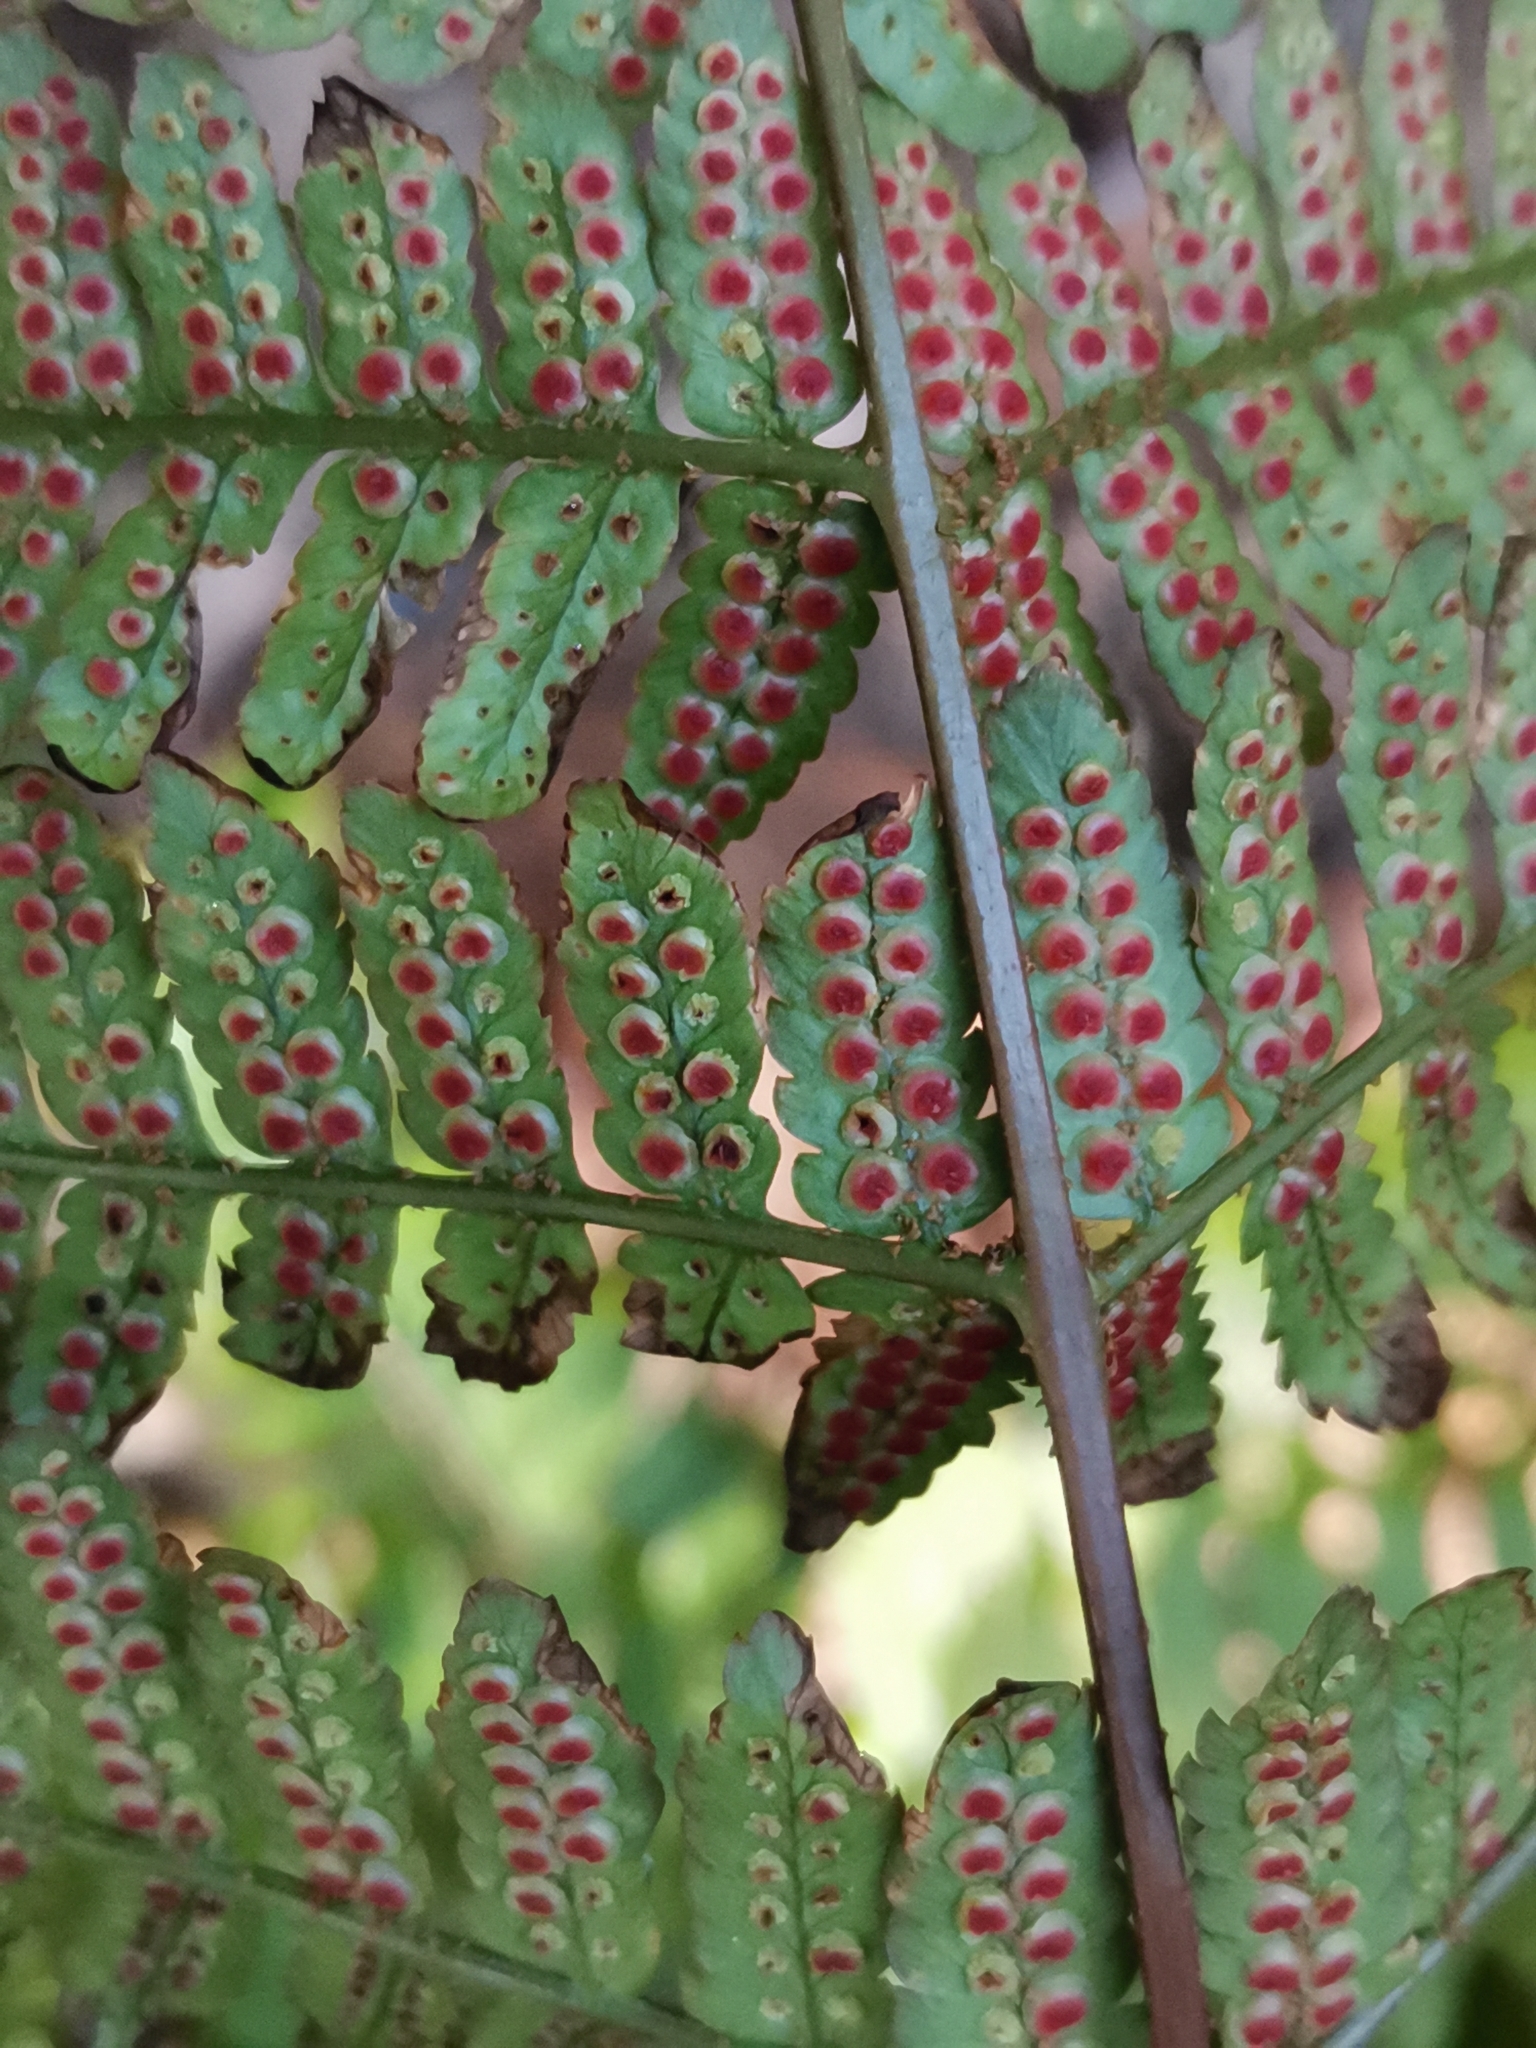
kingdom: Plantae
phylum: Tracheophyta
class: Polypodiopsida
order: Polypodiales
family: Dryopteridaceae
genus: Dryopteris
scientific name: Dryopteris kinokuniensis
